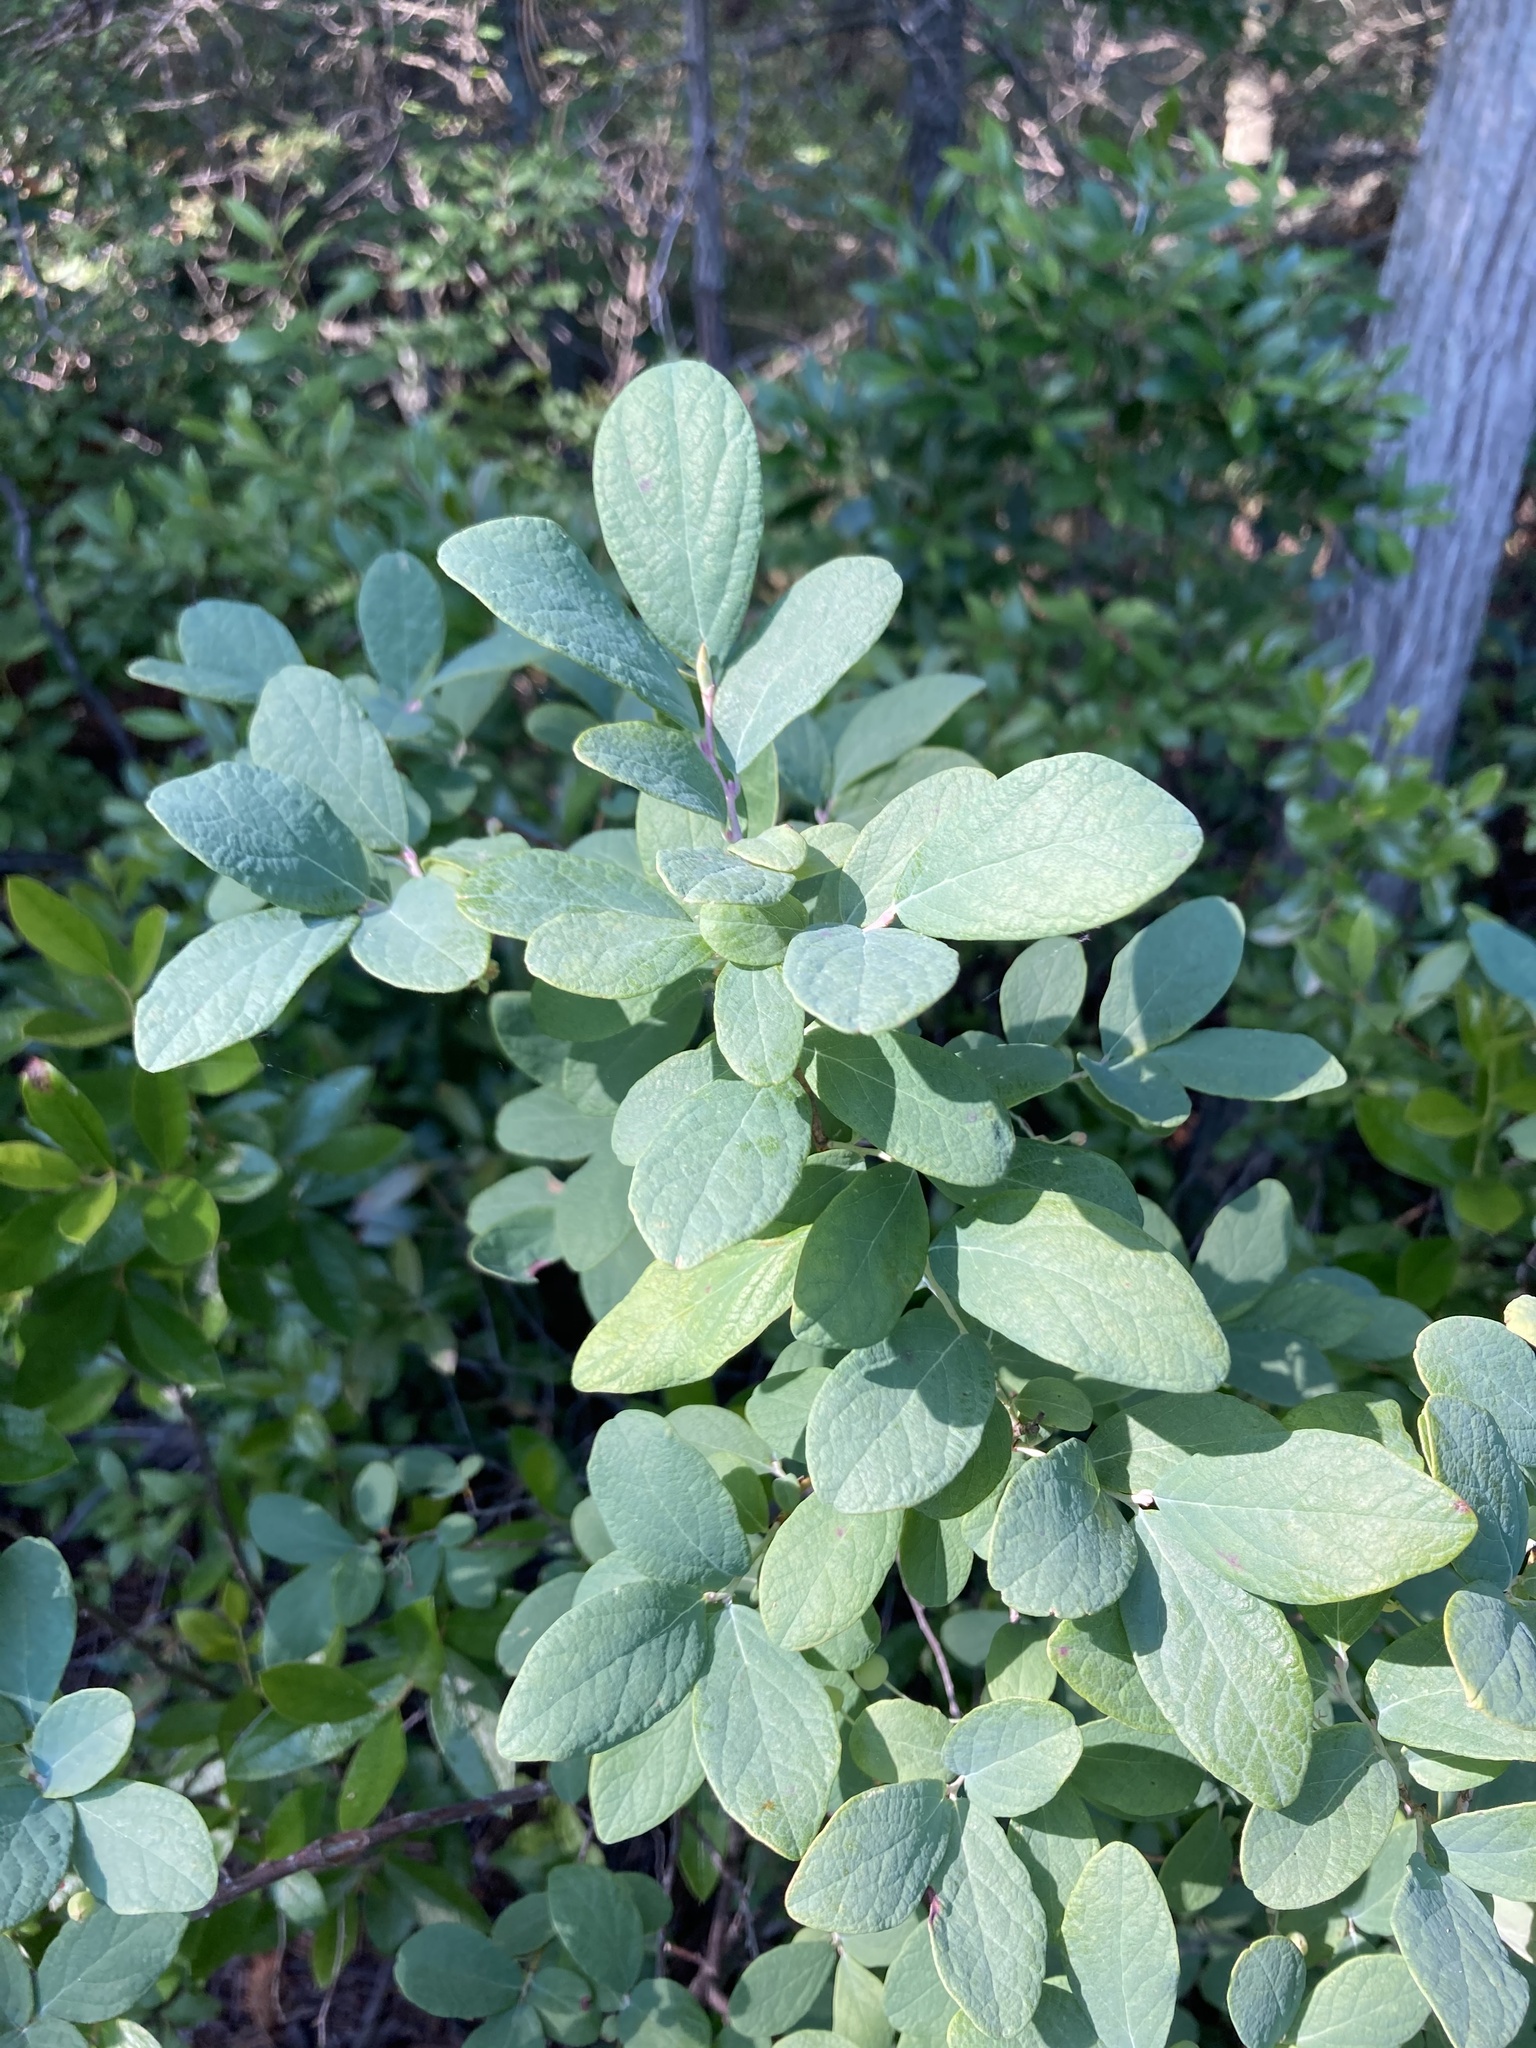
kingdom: Plantae
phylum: Tracheophyta
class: Magnoliopsida
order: Ericales
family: Ericaceae
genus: Gaylussacia
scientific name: Gaylussacia frondosa
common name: Dangleberry
